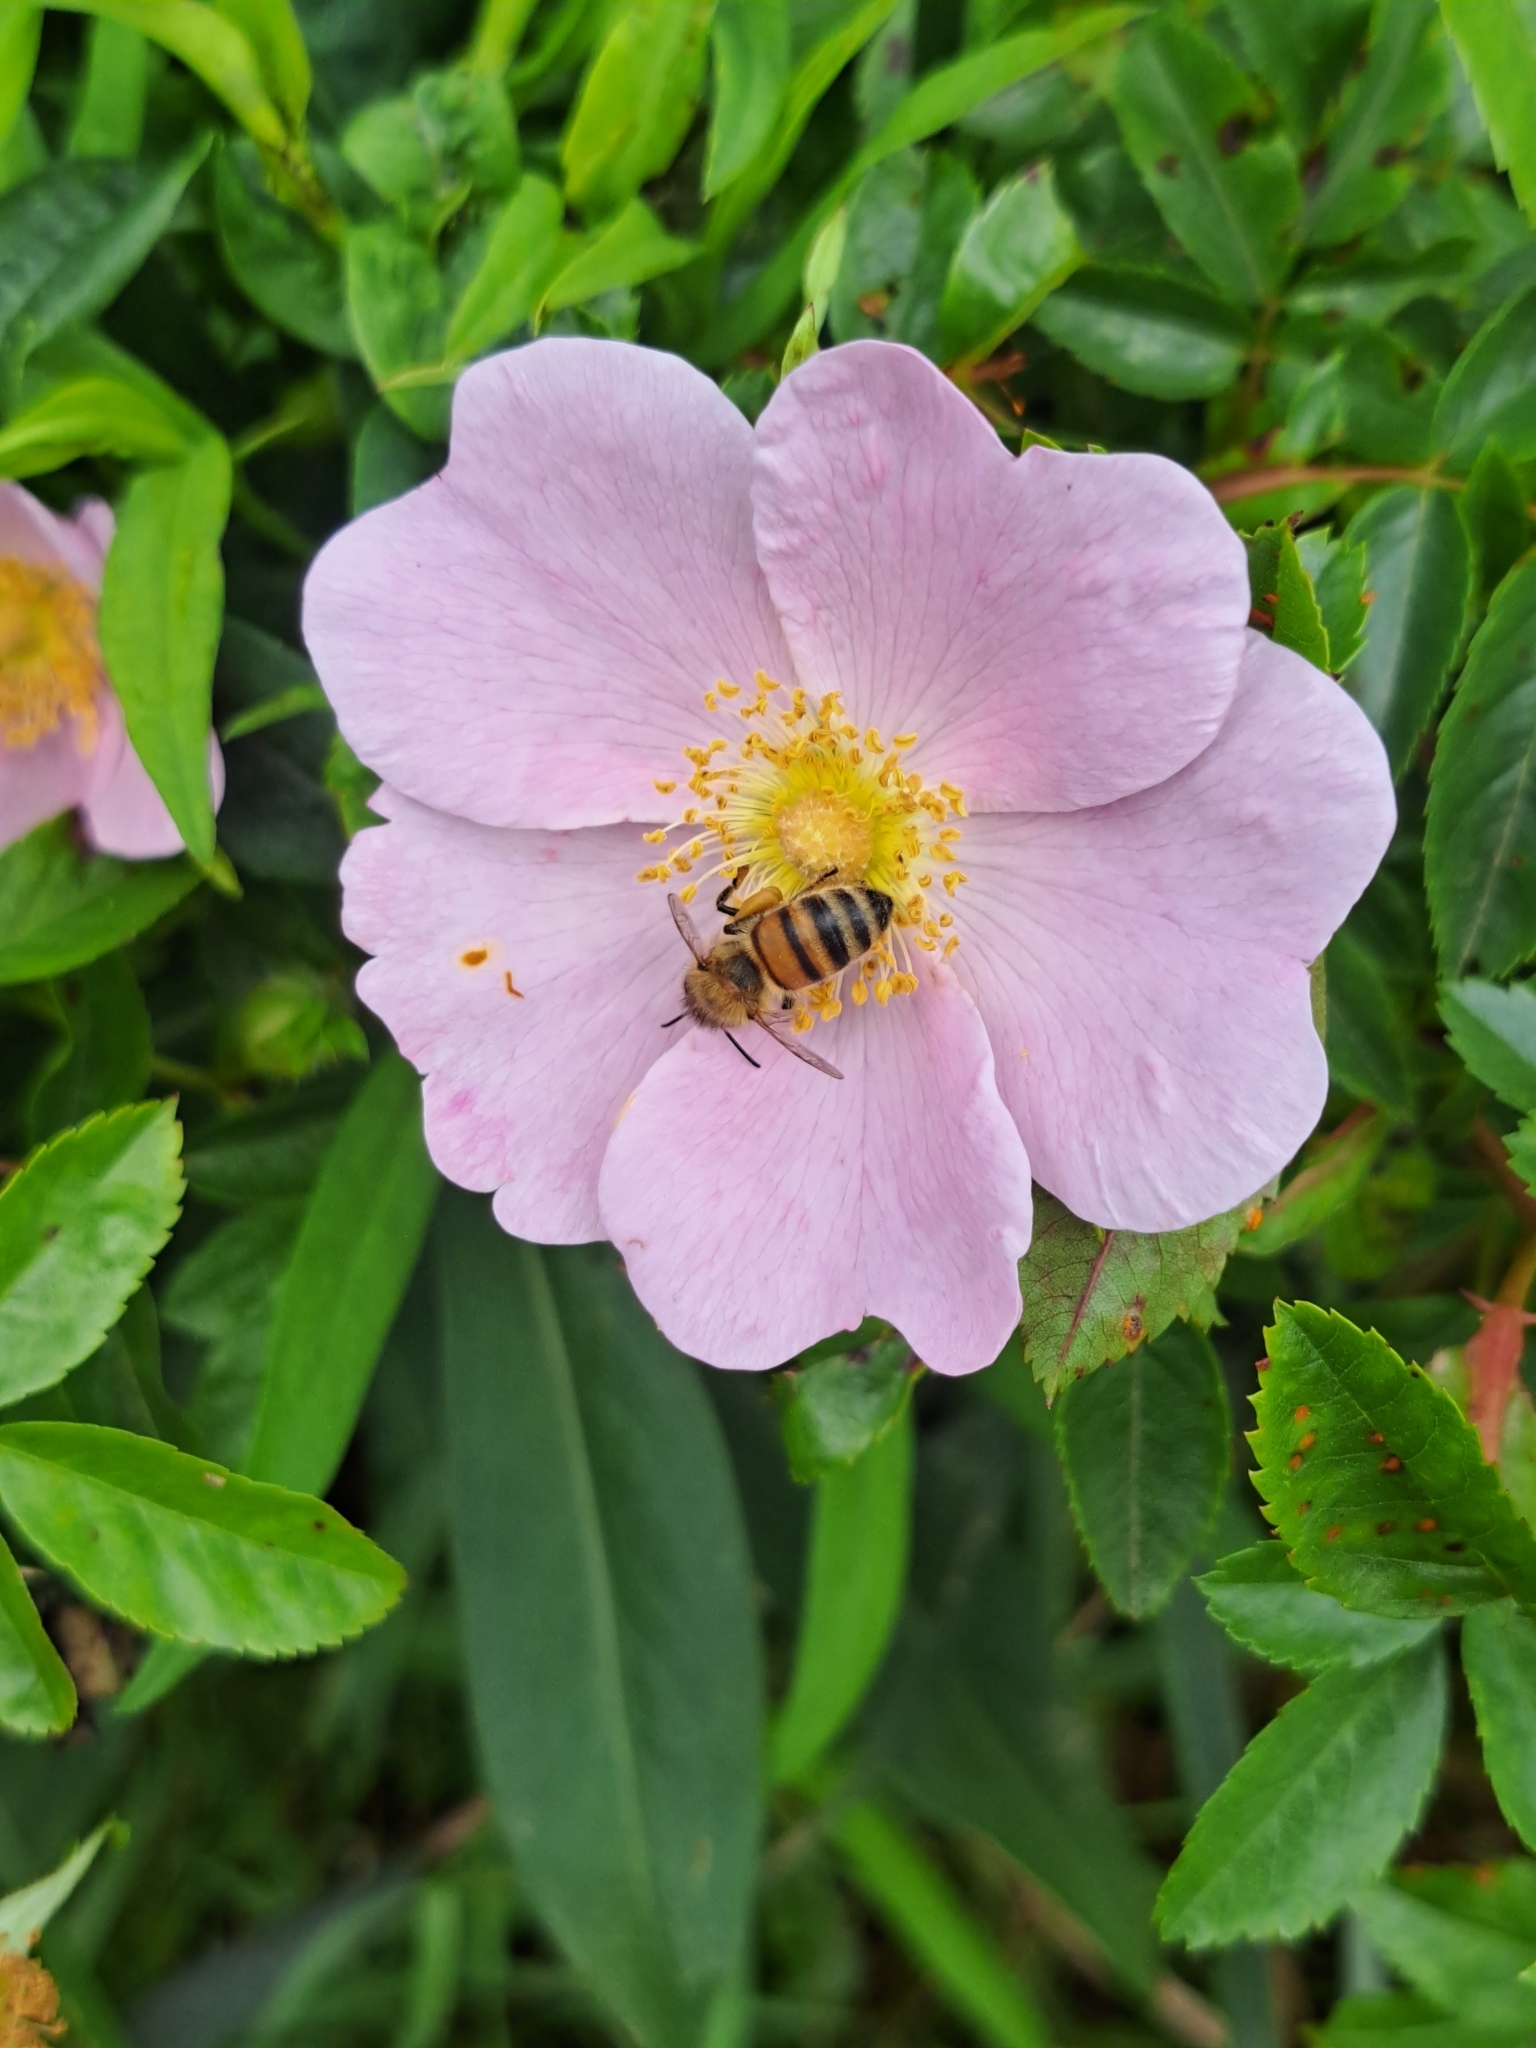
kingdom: Animalia
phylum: Arthropoda
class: Insecta
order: Hymenoptera
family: Apidae
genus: Apis
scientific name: Apis mellifera
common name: Honey bee
